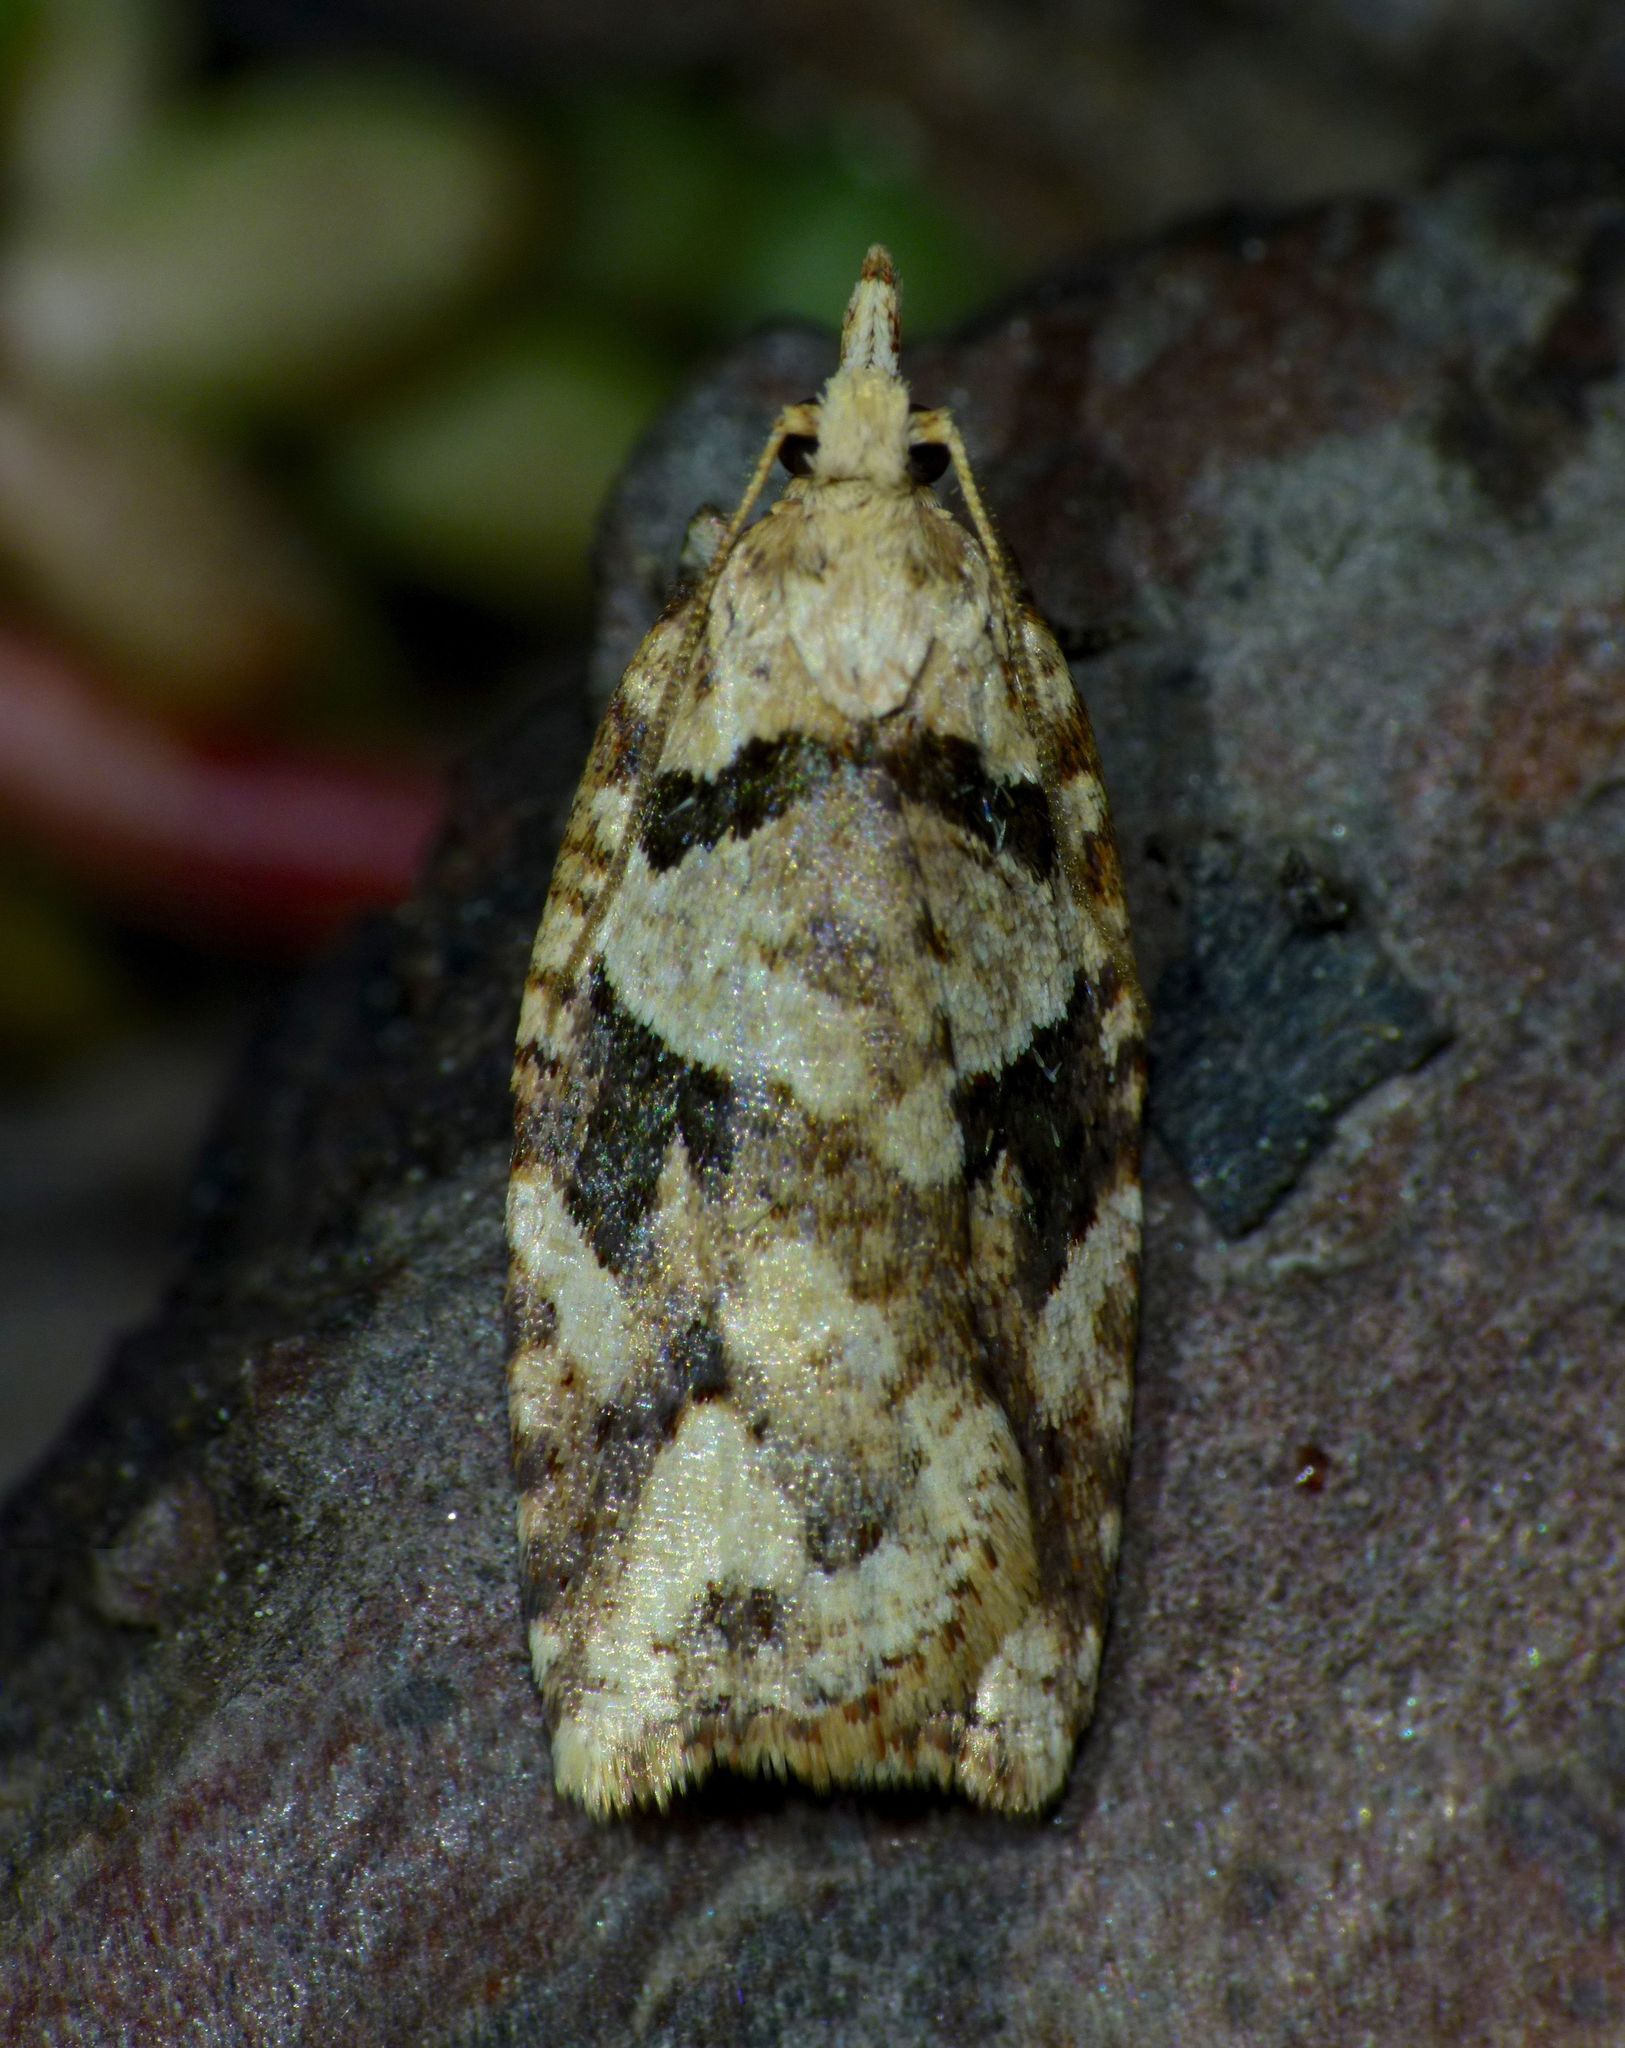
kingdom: Animalia
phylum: Arthropoda
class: Insecta
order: Lepidoptera
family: Tortricidae
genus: Ctenopseustis
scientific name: Ctenopseustis obliquana
